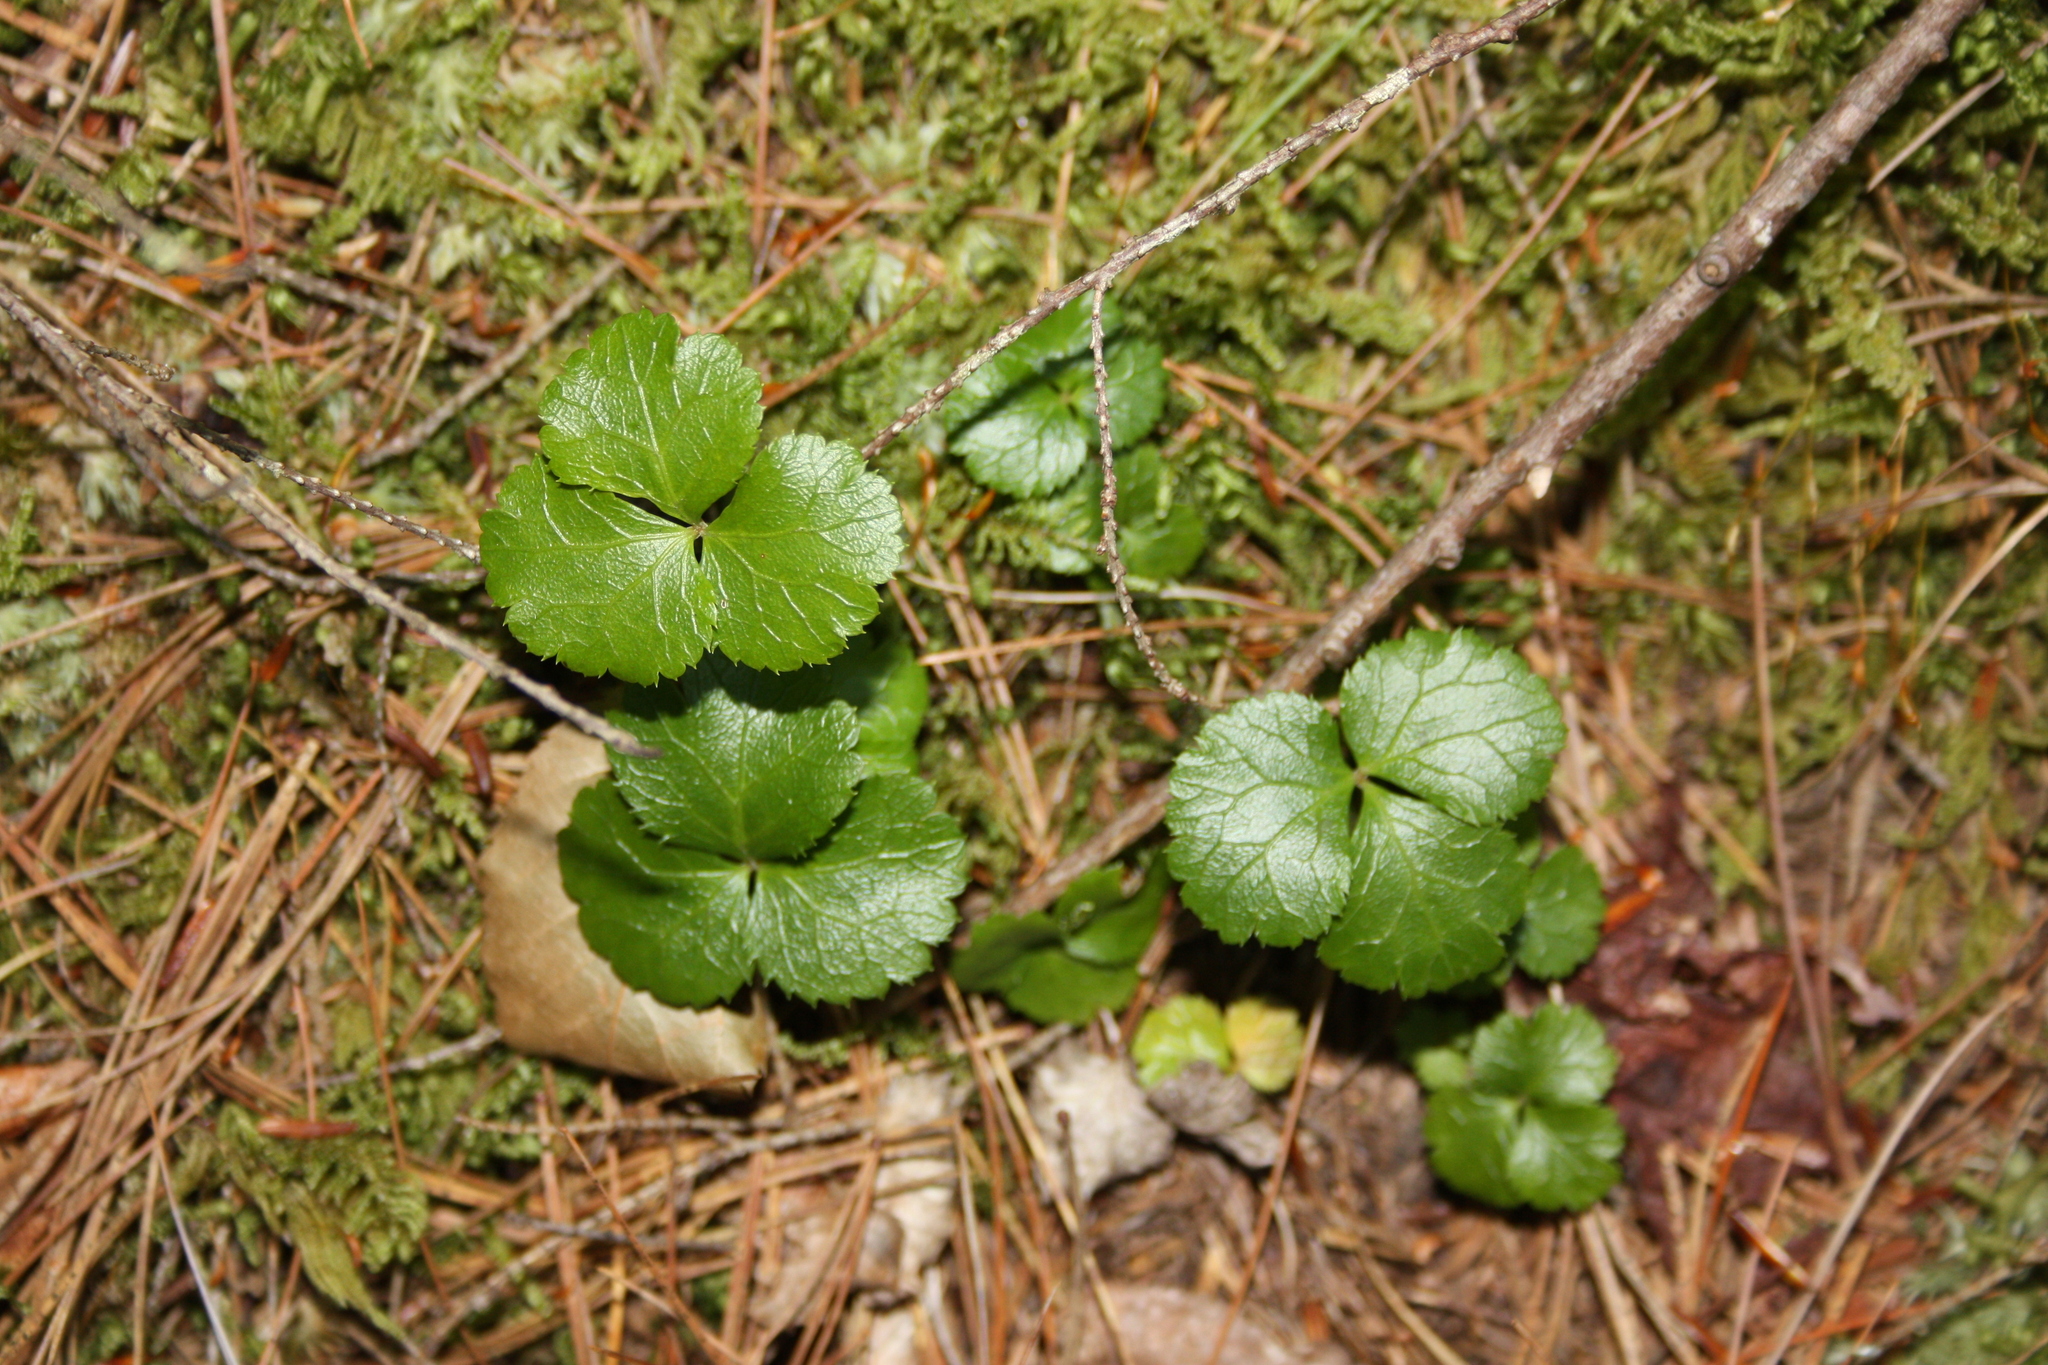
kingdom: Plantae
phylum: Tracheophyta
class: Magnoliopsida
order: Ranunculales
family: Ranunculaceae
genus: Coptis
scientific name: Coptis trifolia
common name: Canker-root
